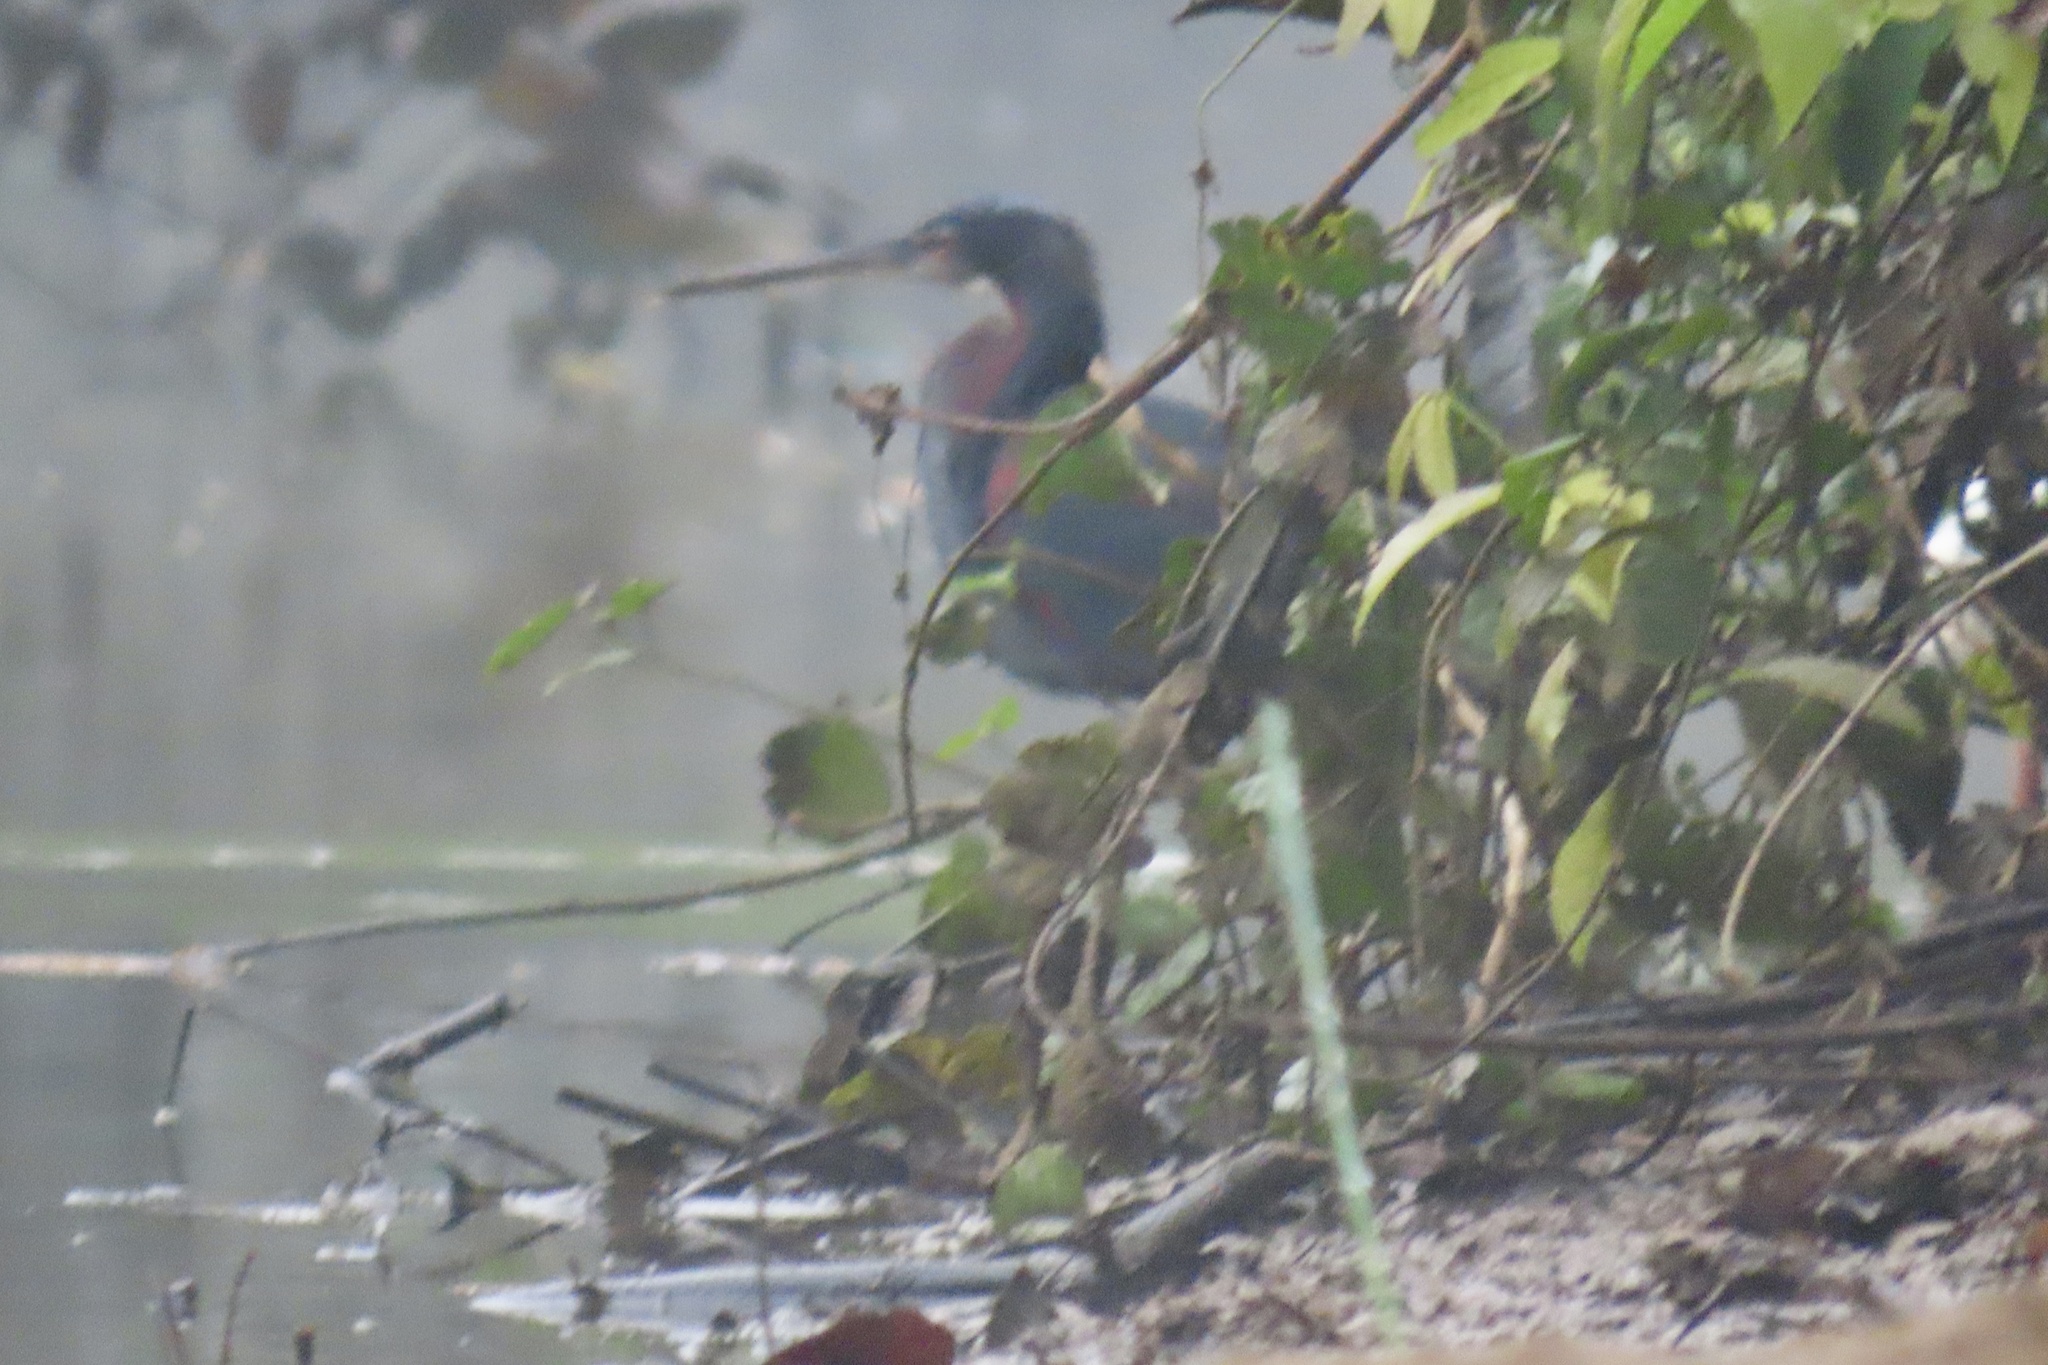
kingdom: Animalia
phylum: Chordata
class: Aves
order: Pelecaniformes
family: Ardeidae
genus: Agamia
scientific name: Agamia agami
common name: Agami heron
